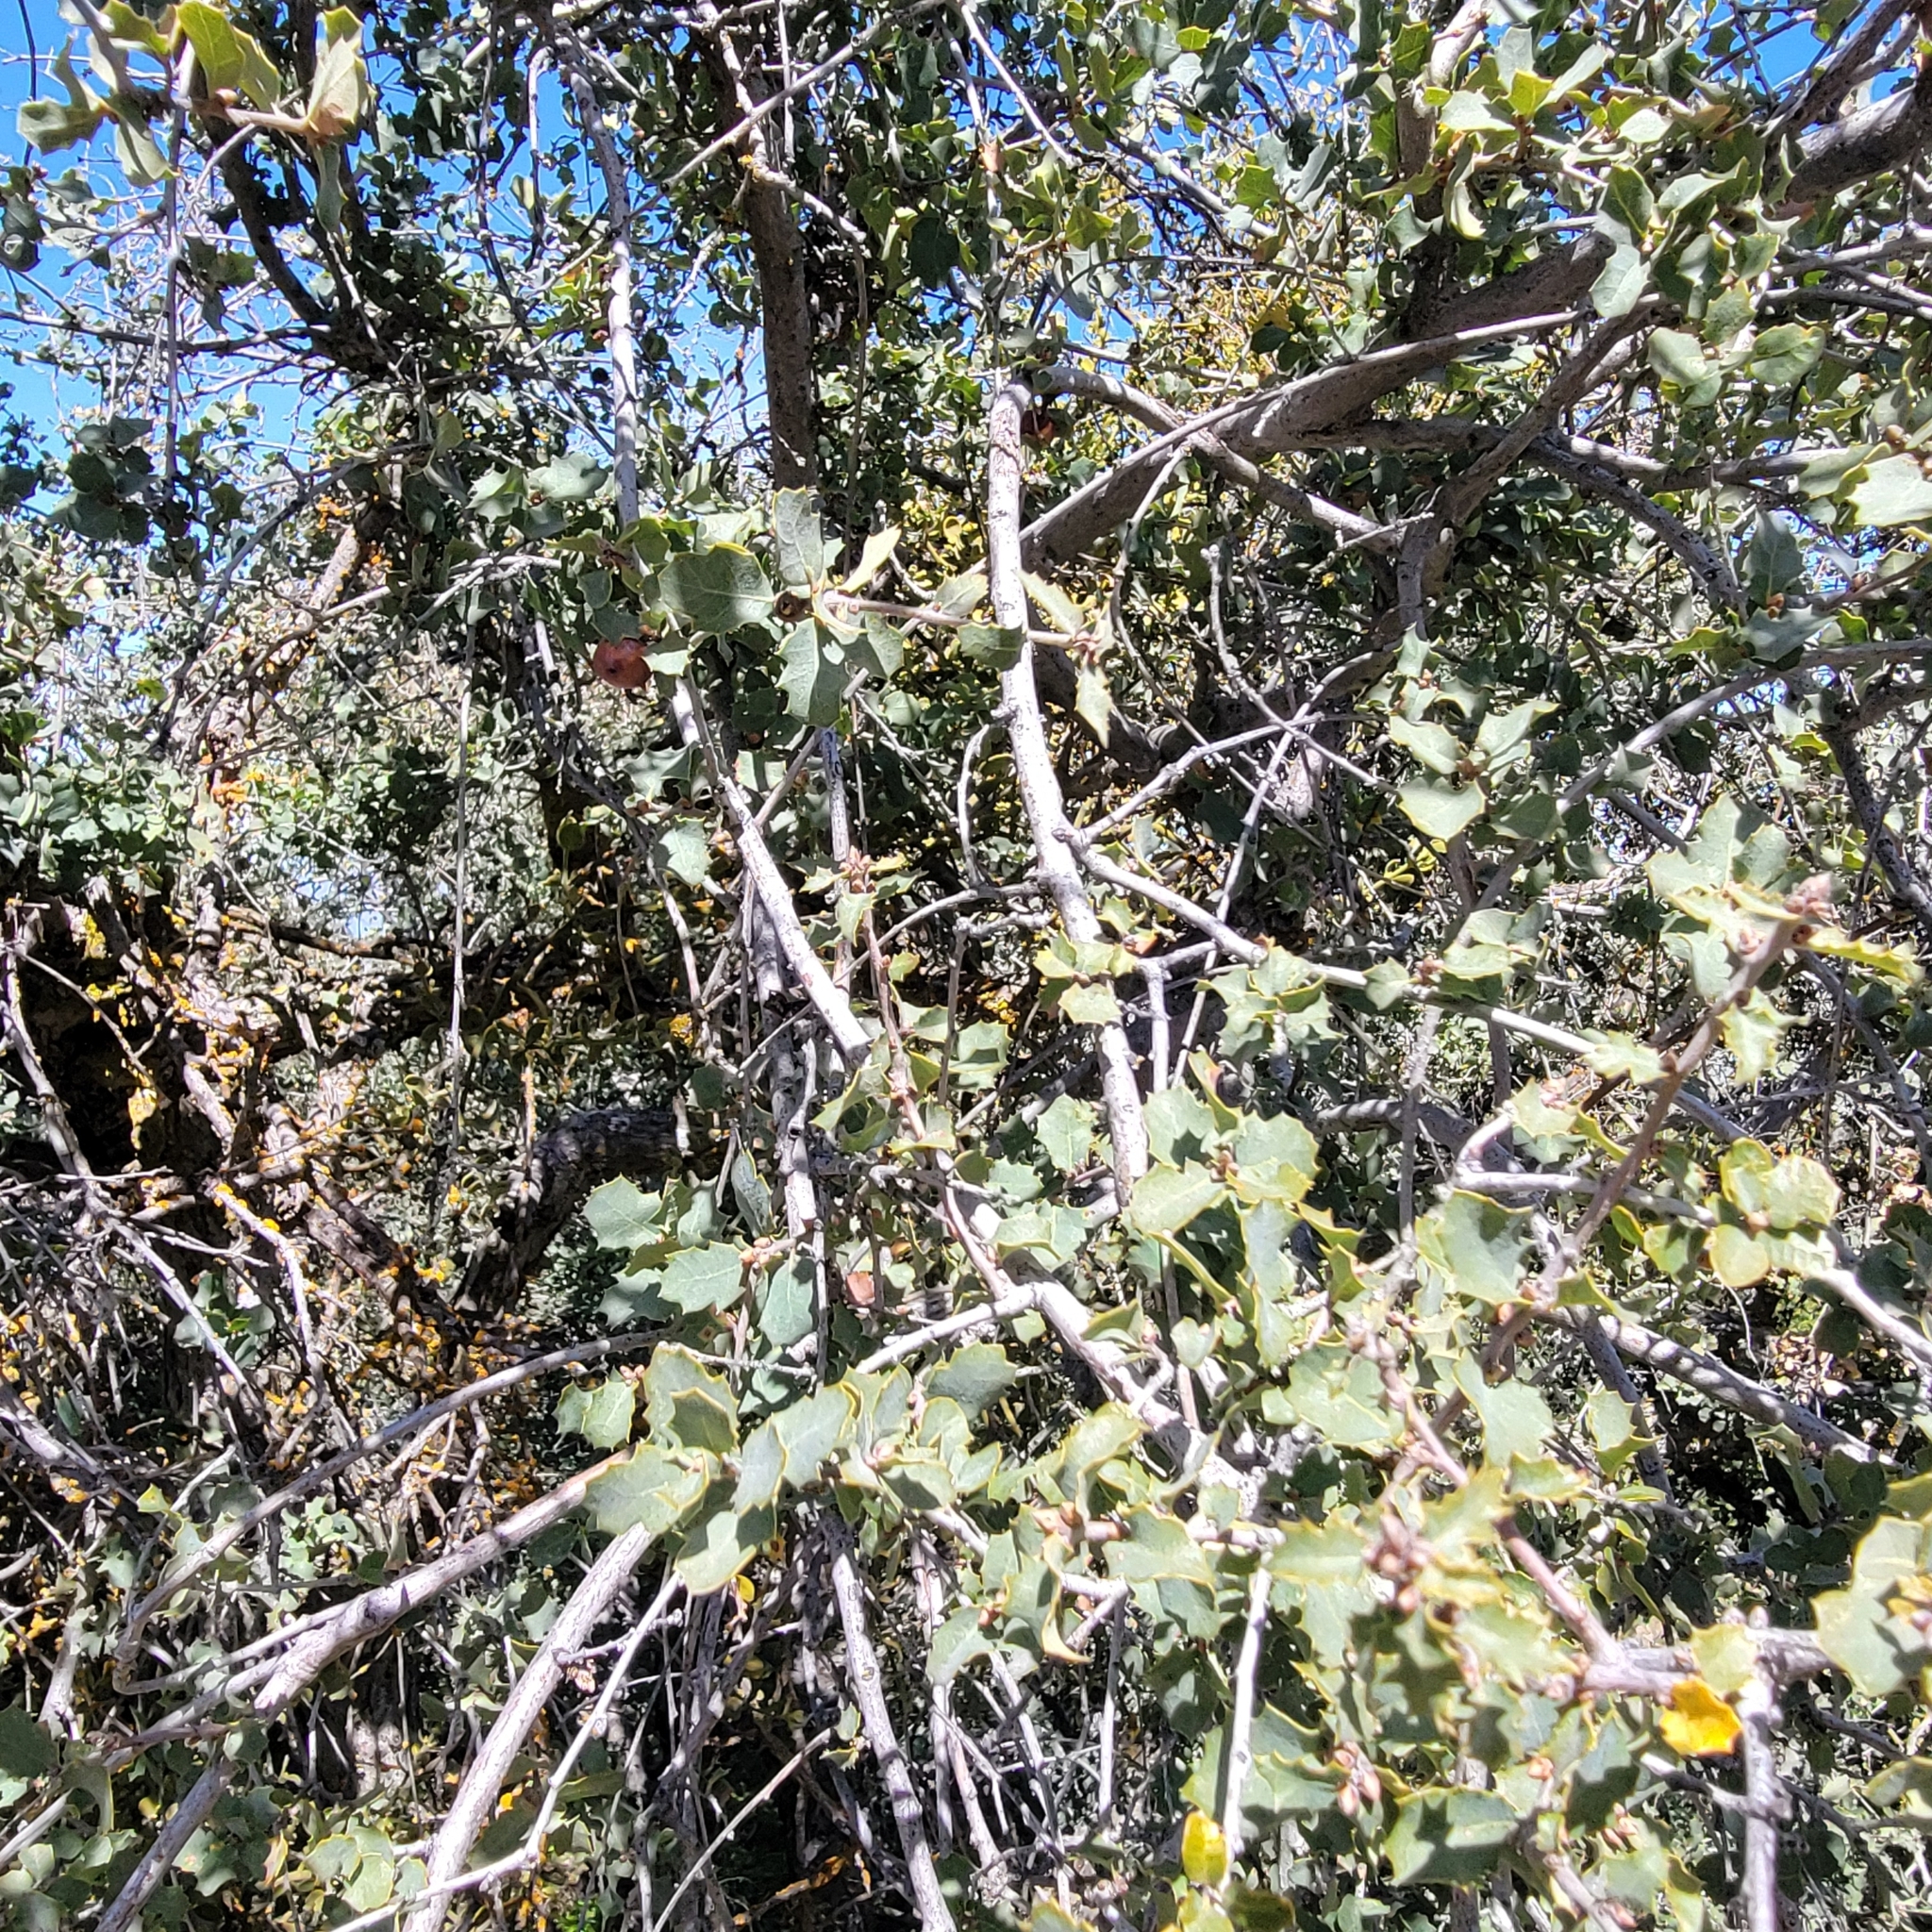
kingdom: Plantae
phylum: Tracheophyta
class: Magnoliopsida
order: Fagales
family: Fagaceae
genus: Quercus
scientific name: Quercus john-tuckeri
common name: Tucker's oak
